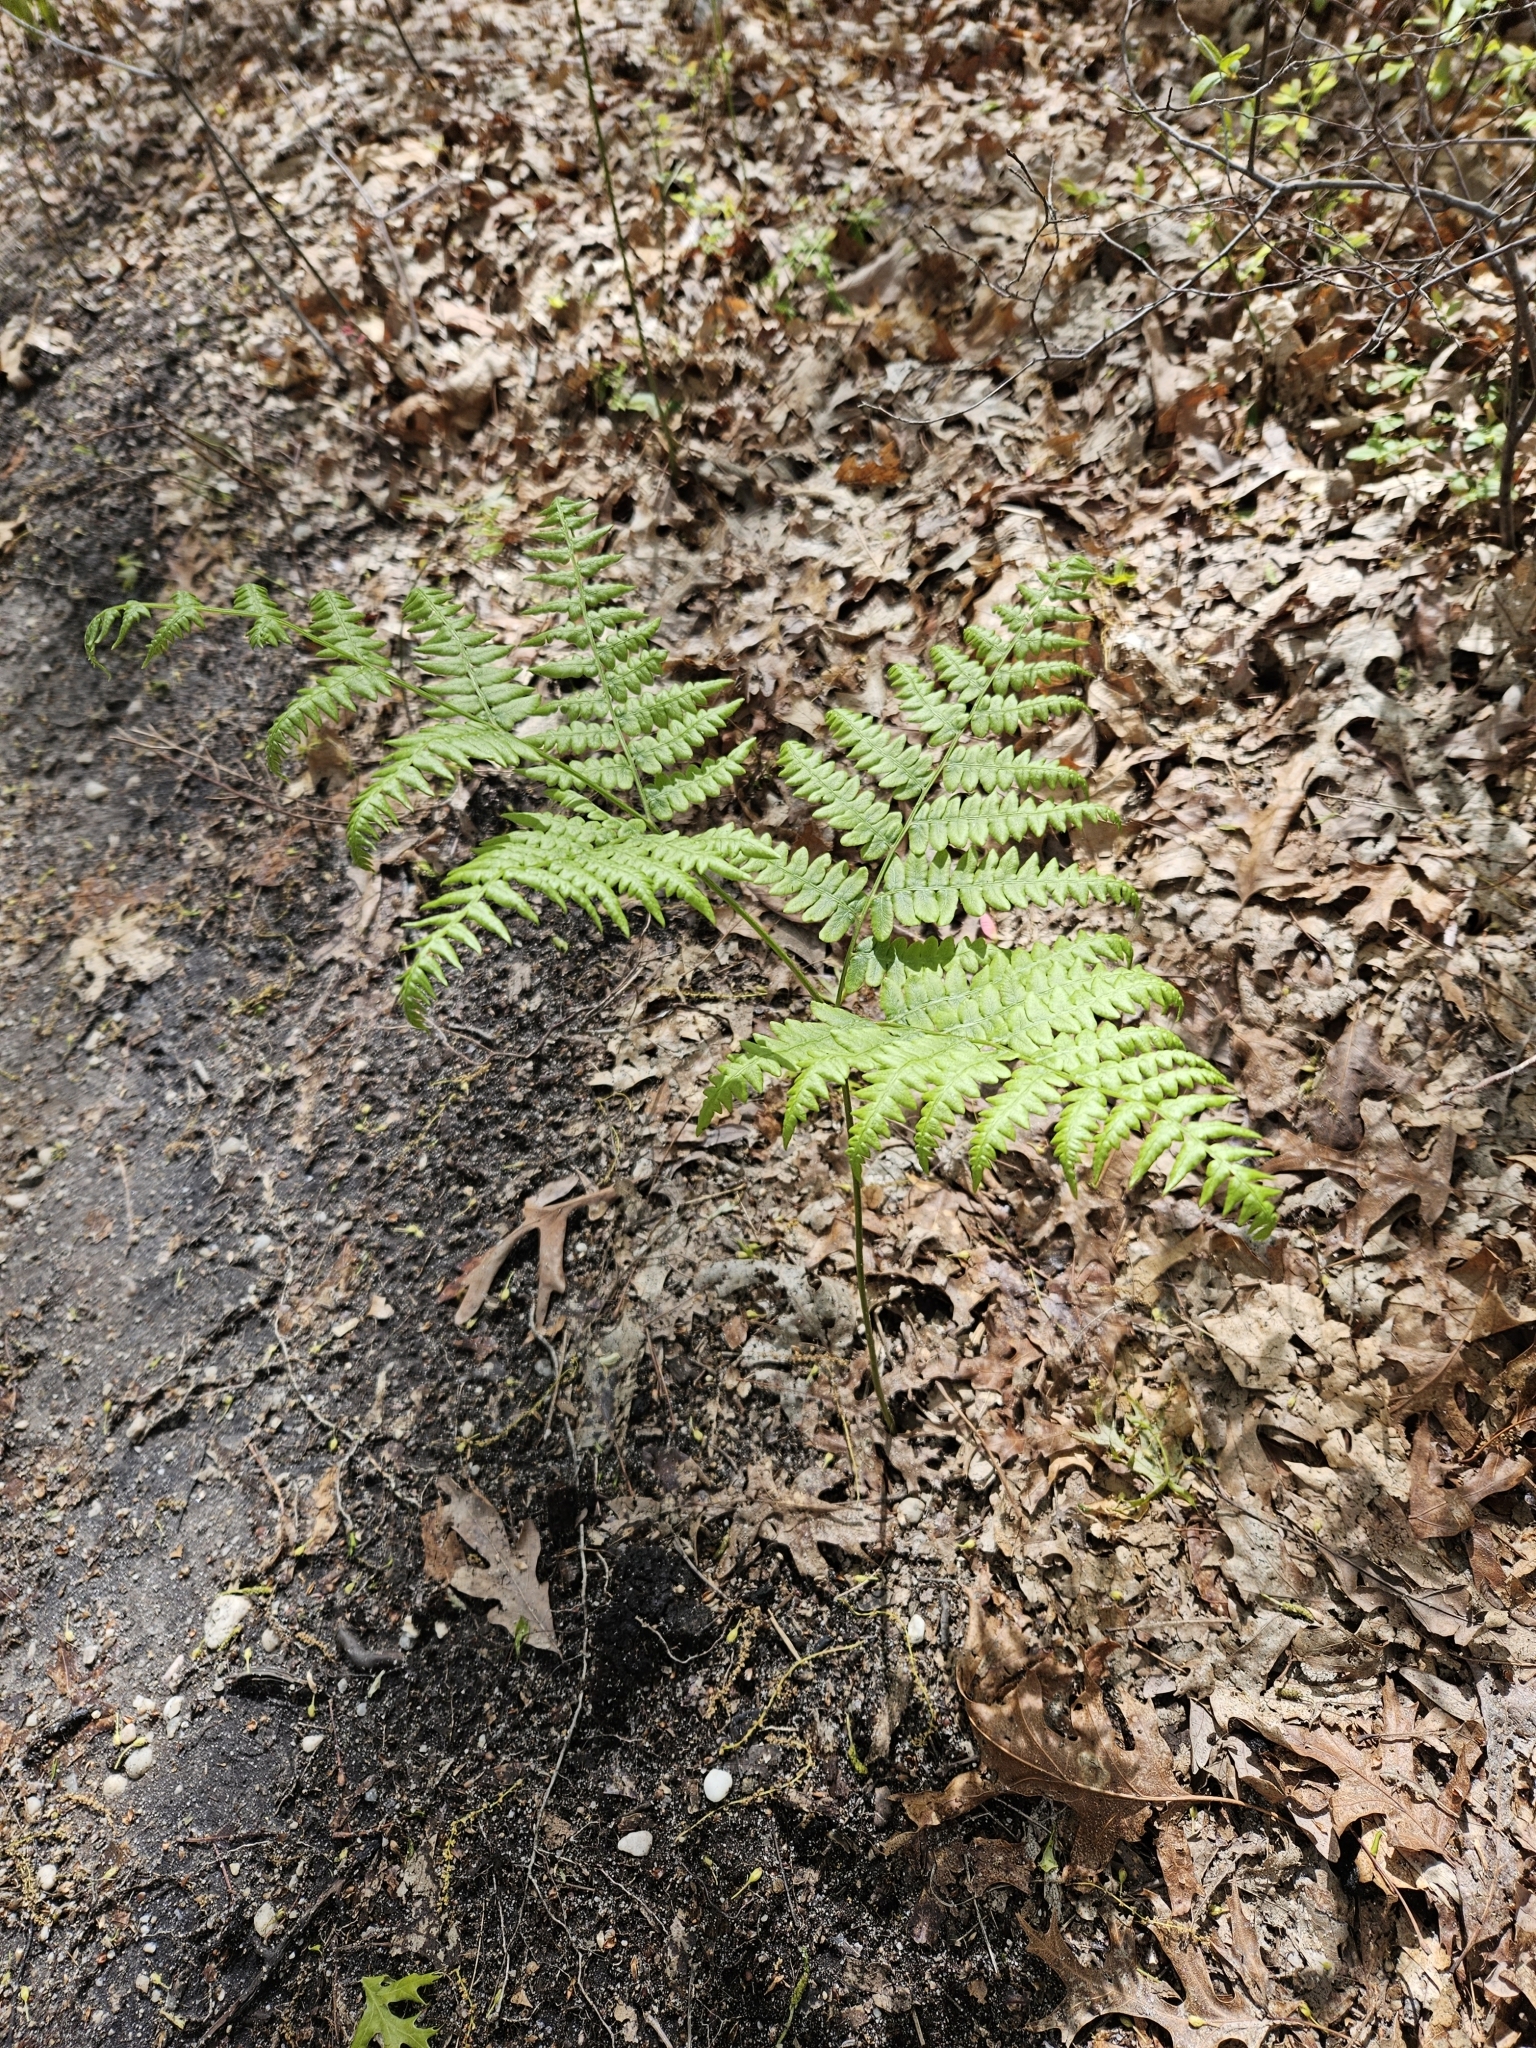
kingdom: Plantae
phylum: Tracheophyta
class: Polypodiopsida
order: Polypodiales
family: Dennstaedtiaceae
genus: Pteridium
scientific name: Pteridium aquilinum
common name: Bracken
